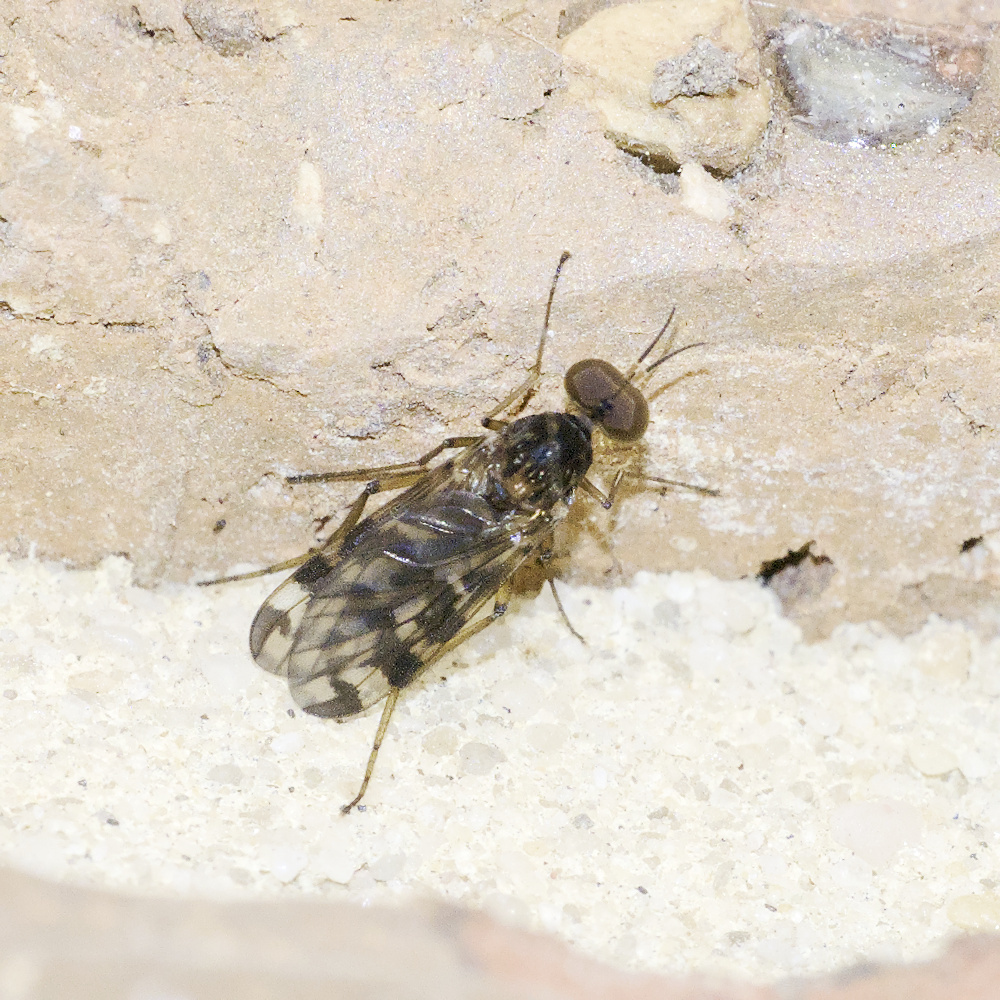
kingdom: Animalia
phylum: Arthropoda
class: Insecta
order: Diptera
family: Anisopodidae
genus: Sylvicola
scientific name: Sylvicola dubius
